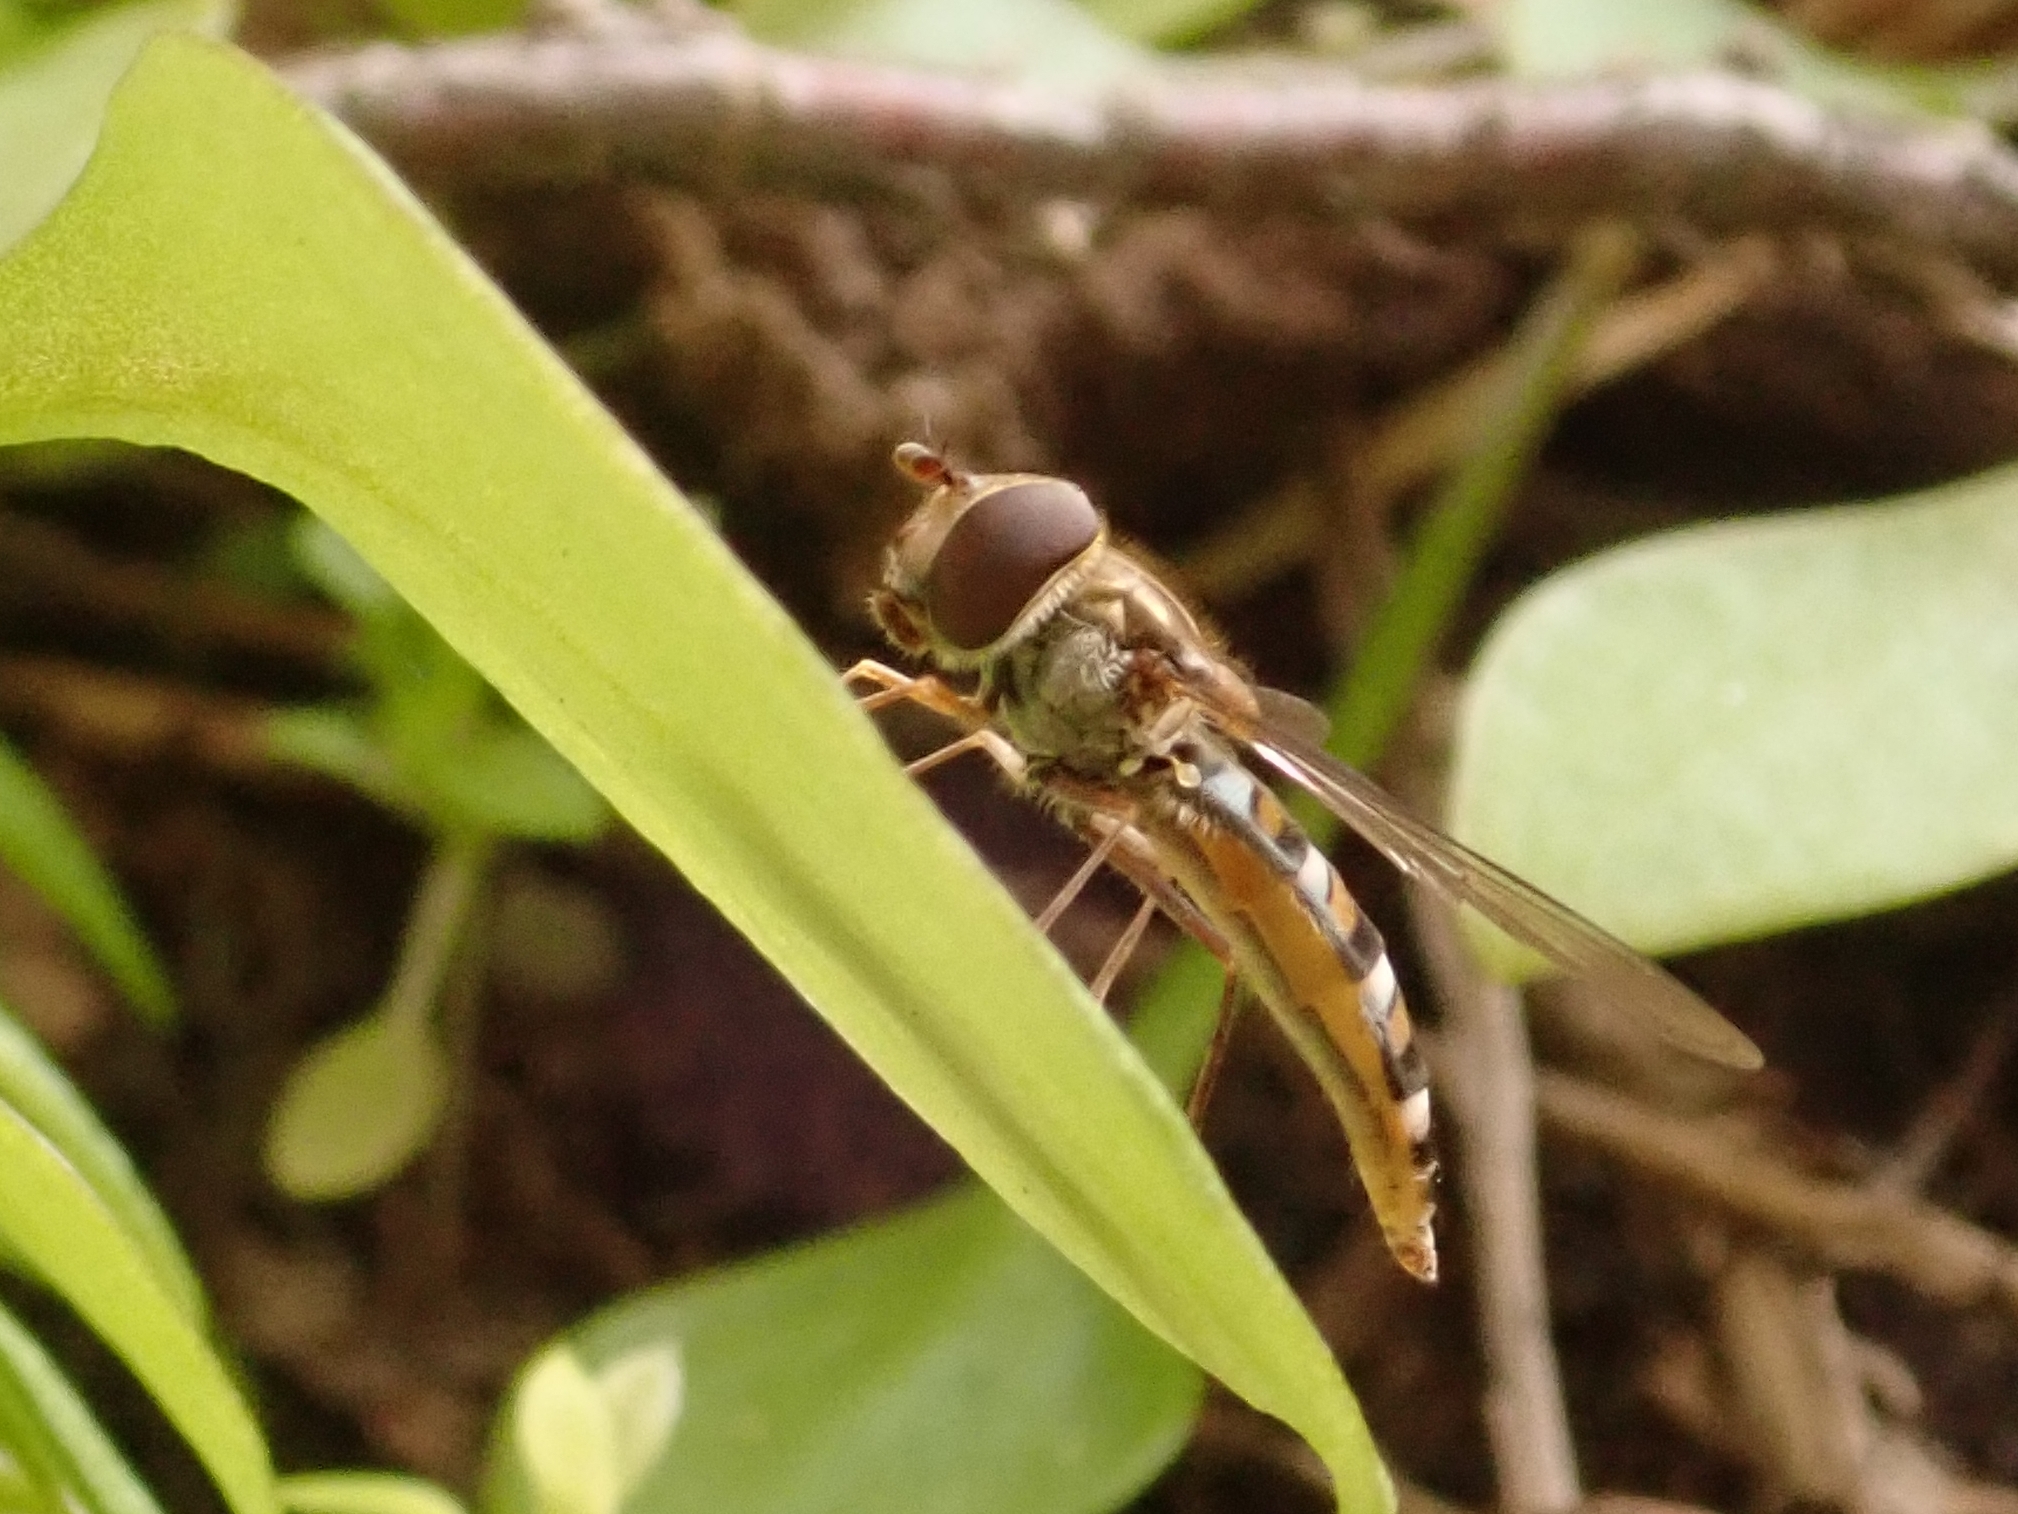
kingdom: Animalia
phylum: Arthropoda
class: Insecta
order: Diptera
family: Syrphidae
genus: Episyrphus
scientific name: Episyrphus balteatus
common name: Marmalade hoverfly
